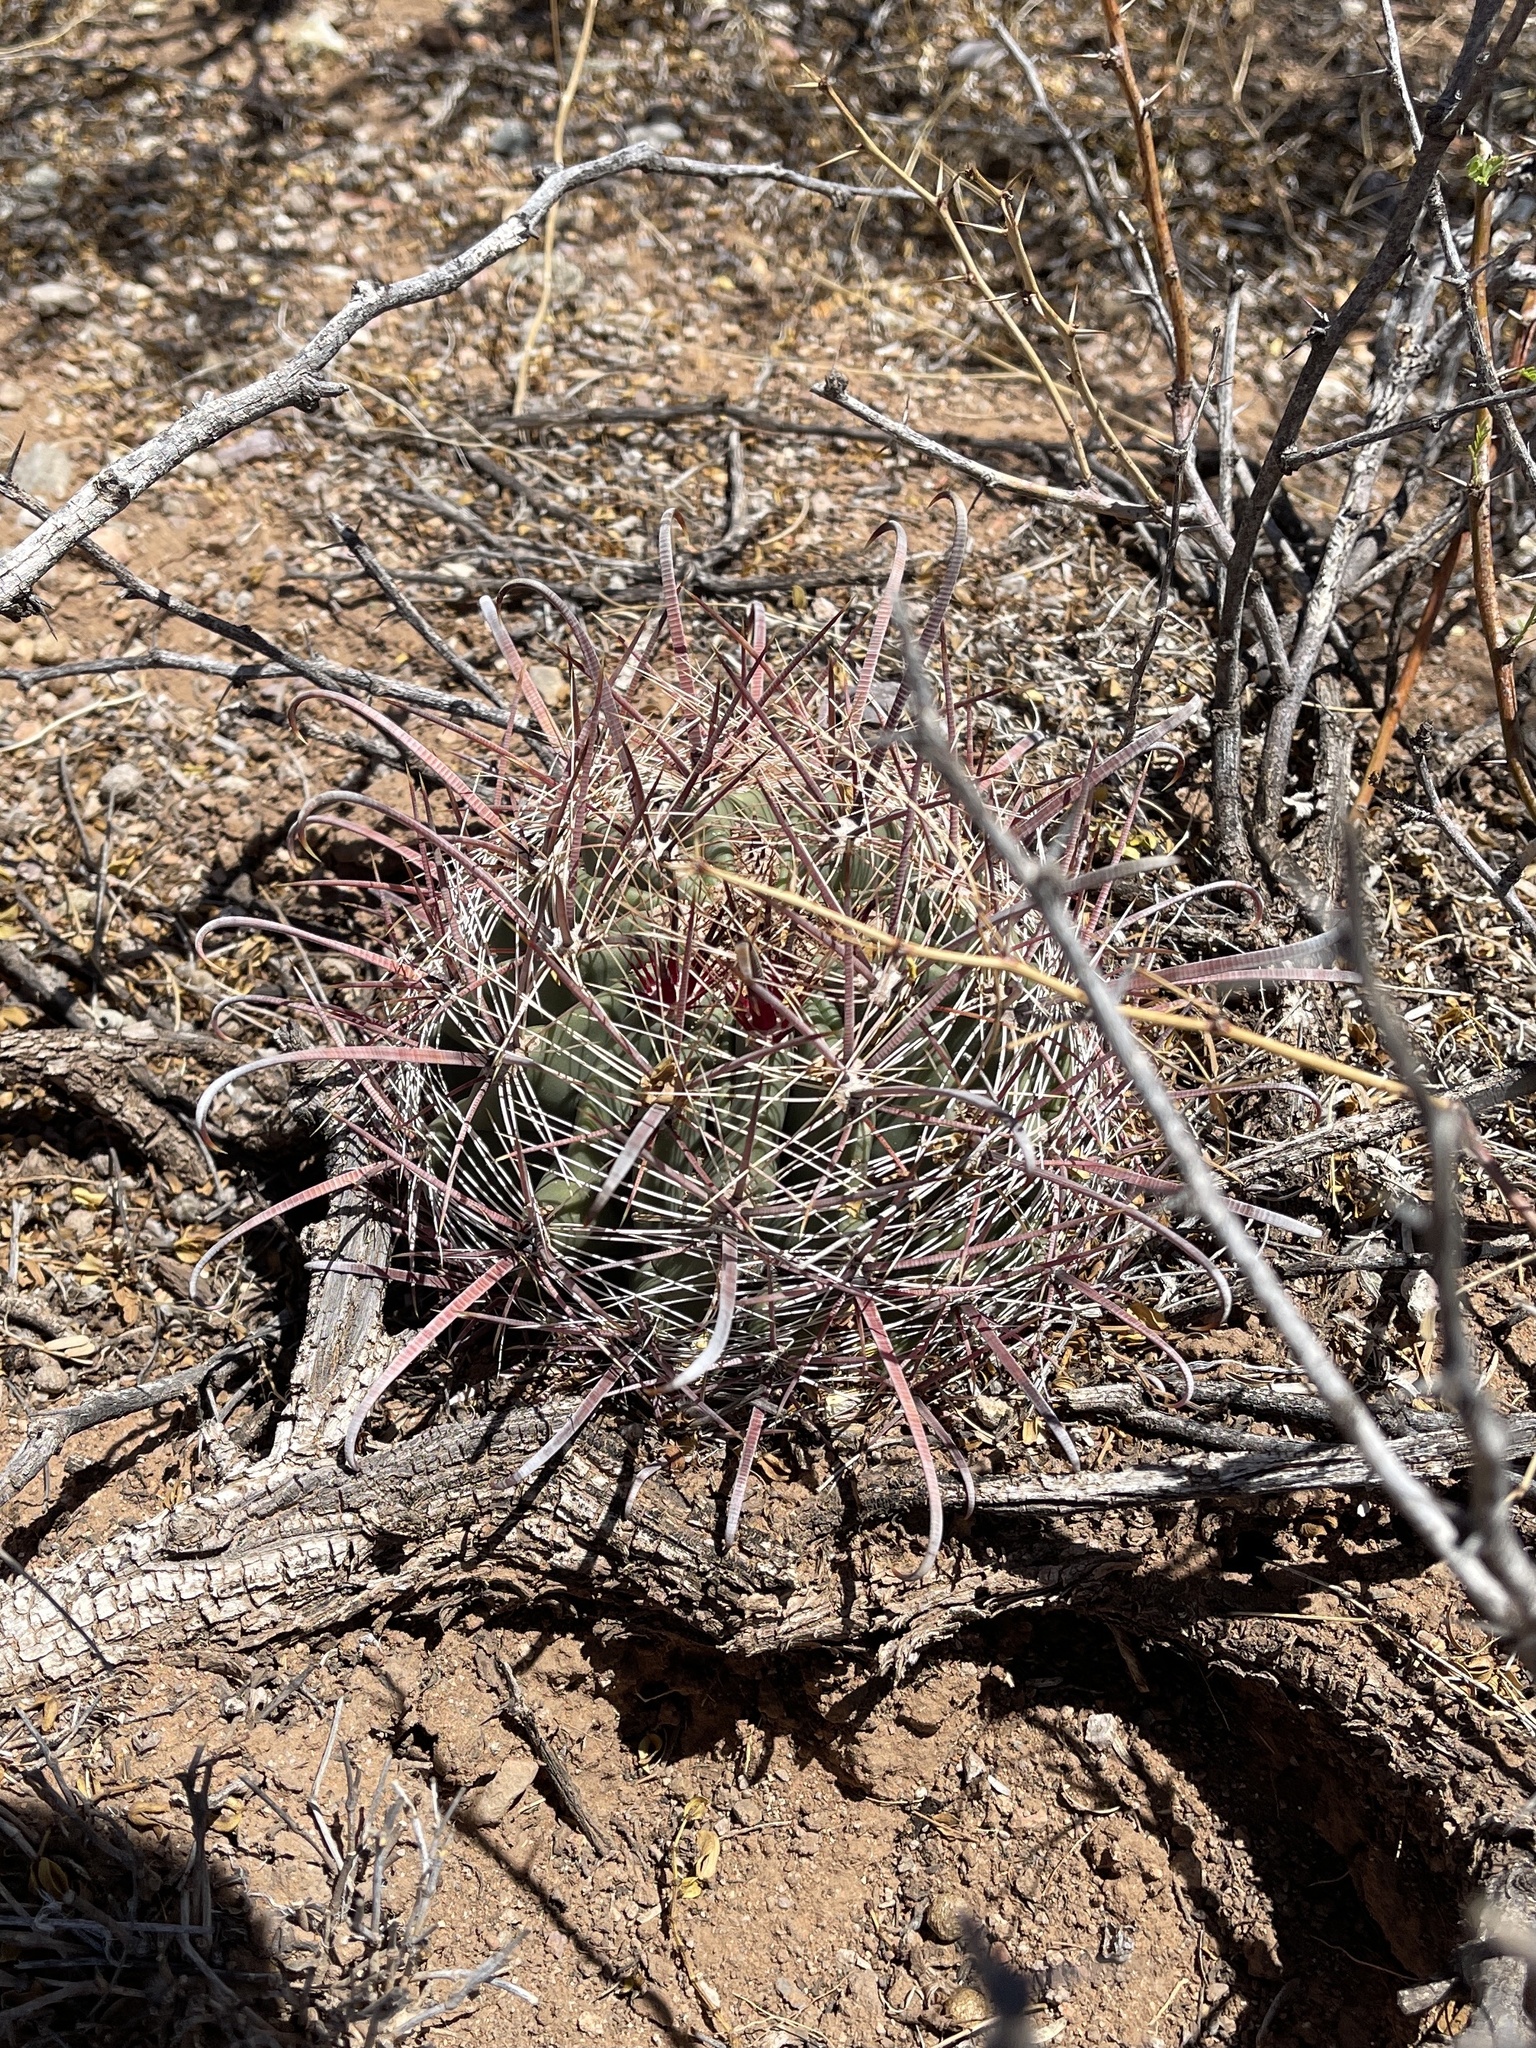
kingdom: Plantae
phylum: Tracheophyta
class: Magnoliopsida
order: Caryophyllales
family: Cactaceae
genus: Ferocactus
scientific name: Ferocactus wislizeni
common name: Candy barrel cactus
